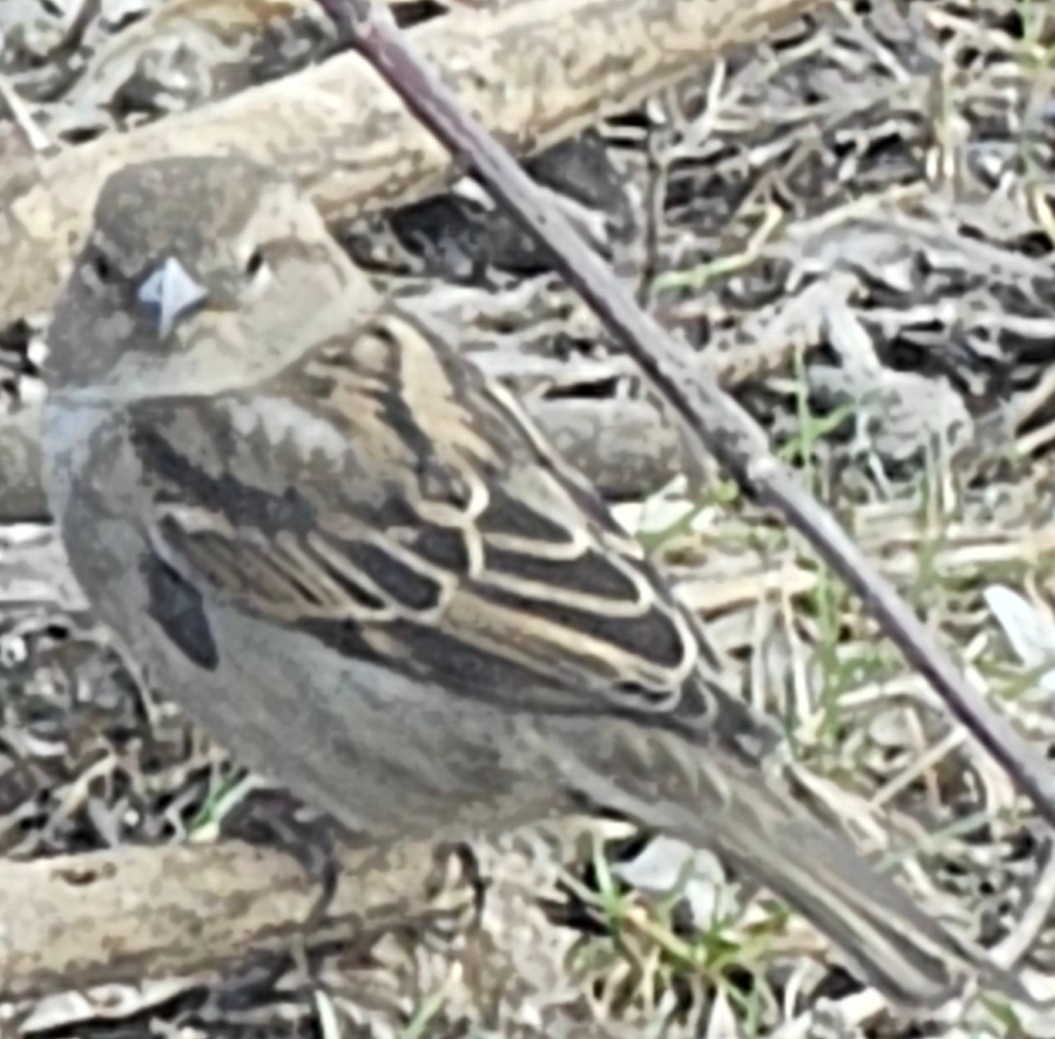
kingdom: Animalia
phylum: Chordata
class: Aves
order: Passeriformes
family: Passeridae
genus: Passer
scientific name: Passer domesticus
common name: House sparrow
